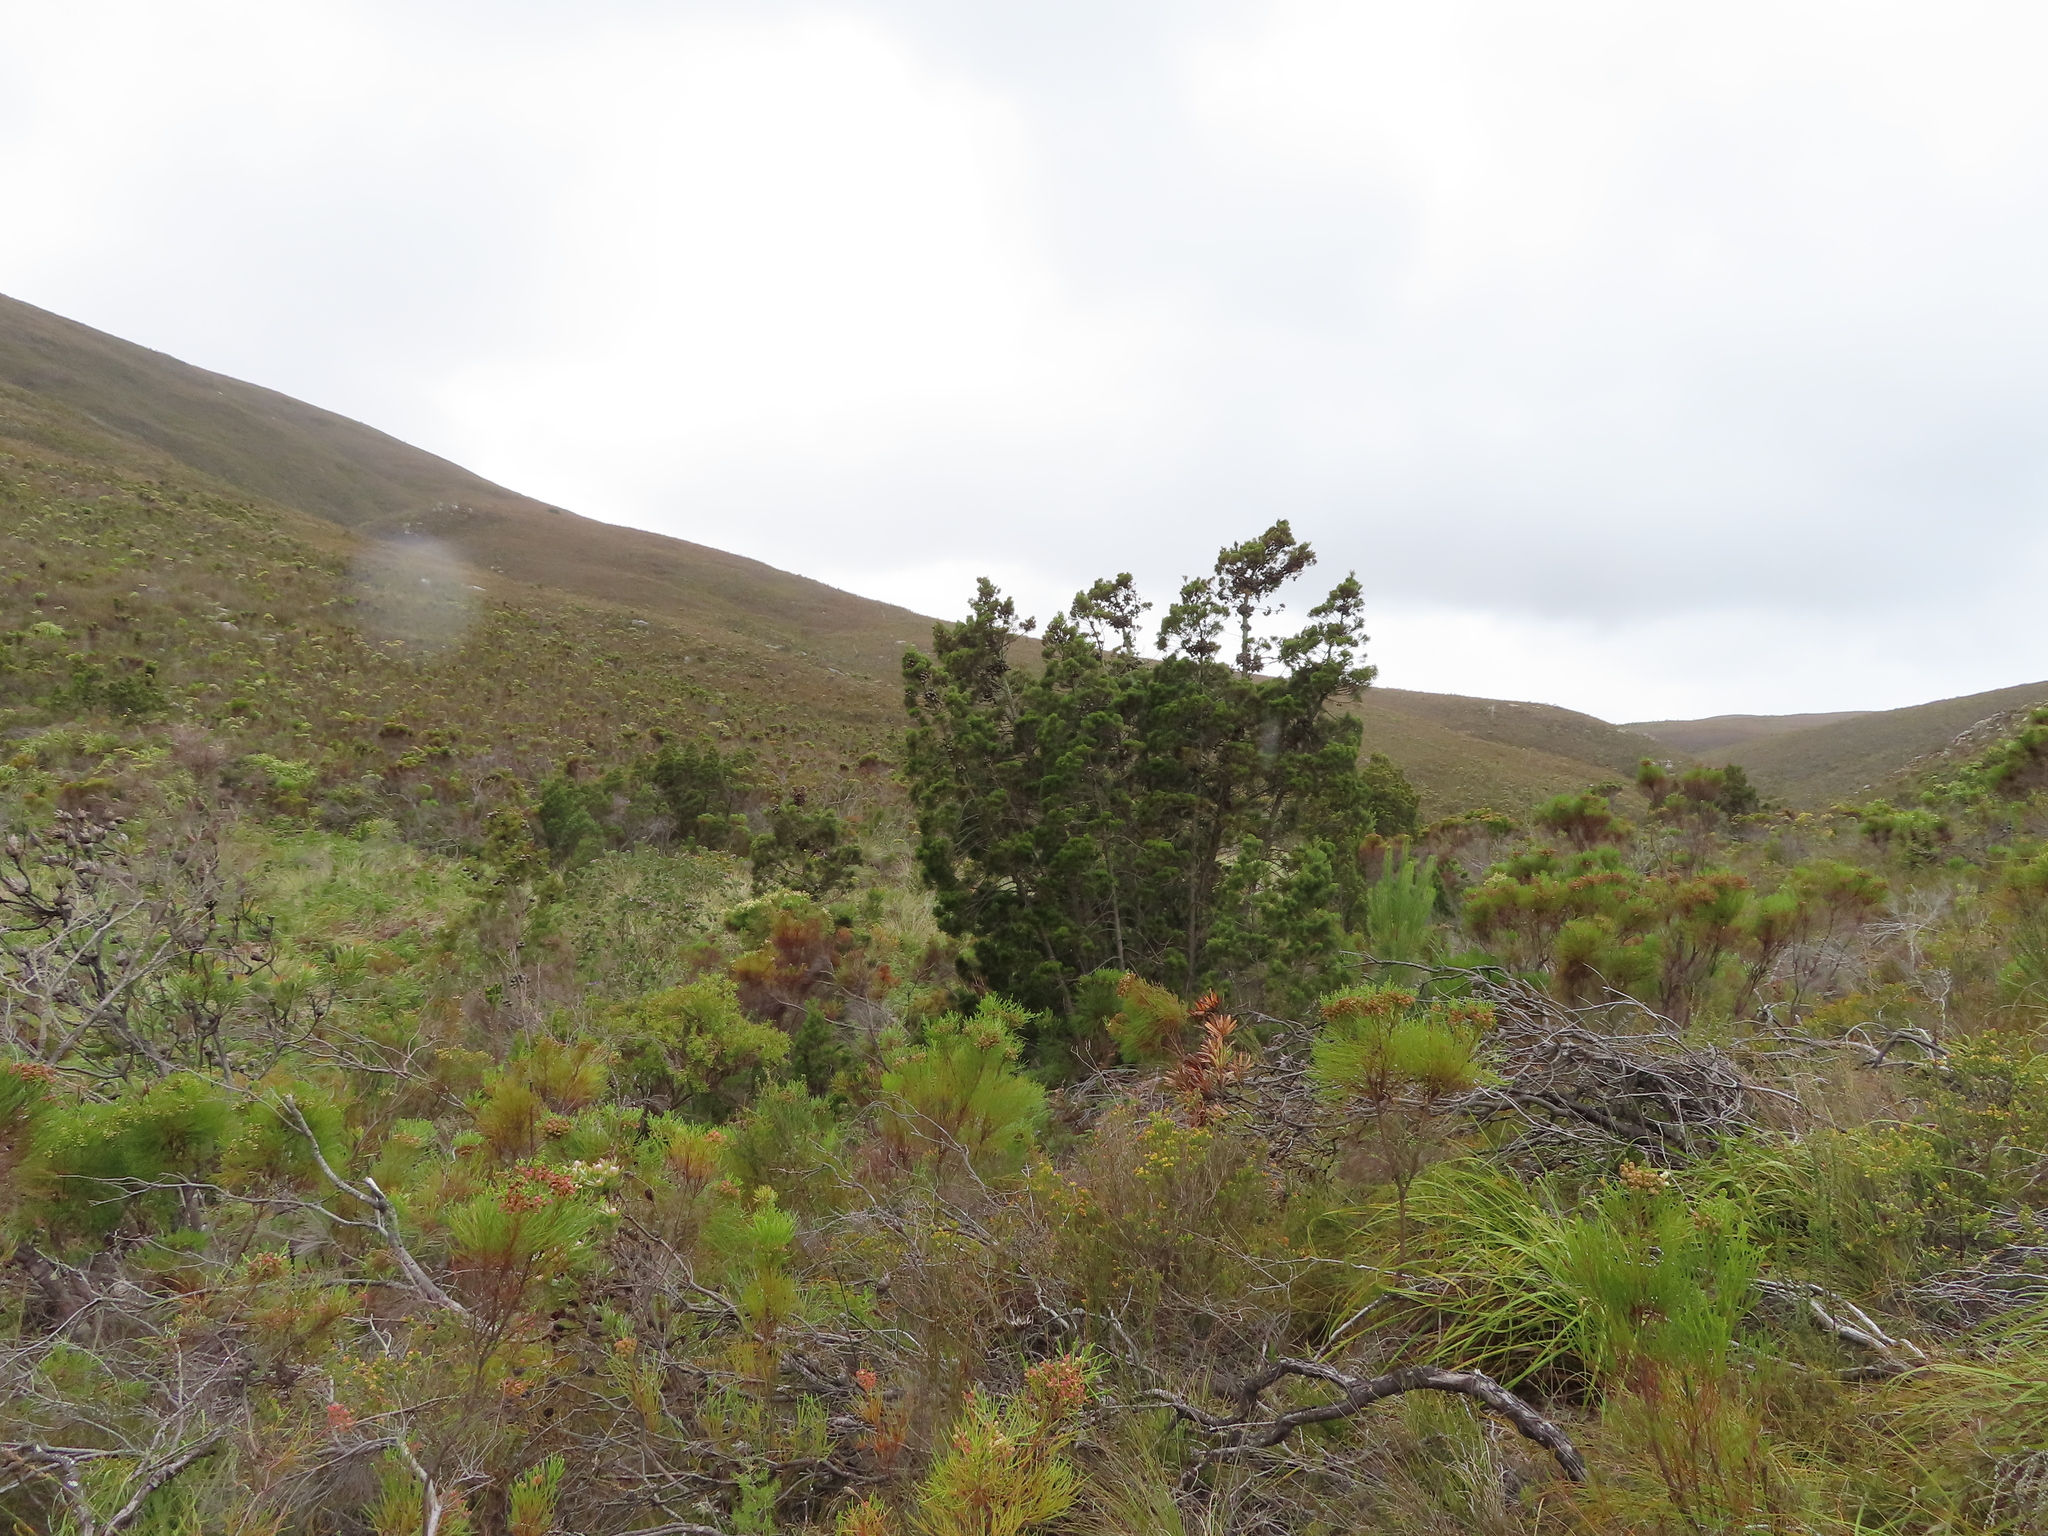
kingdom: Plantae
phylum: Tracheophyta
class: Pinopsida
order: Pinales
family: Cupressaceae
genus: Widdringtonia
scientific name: Widdringtonia nodiflora
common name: Cape cypress
